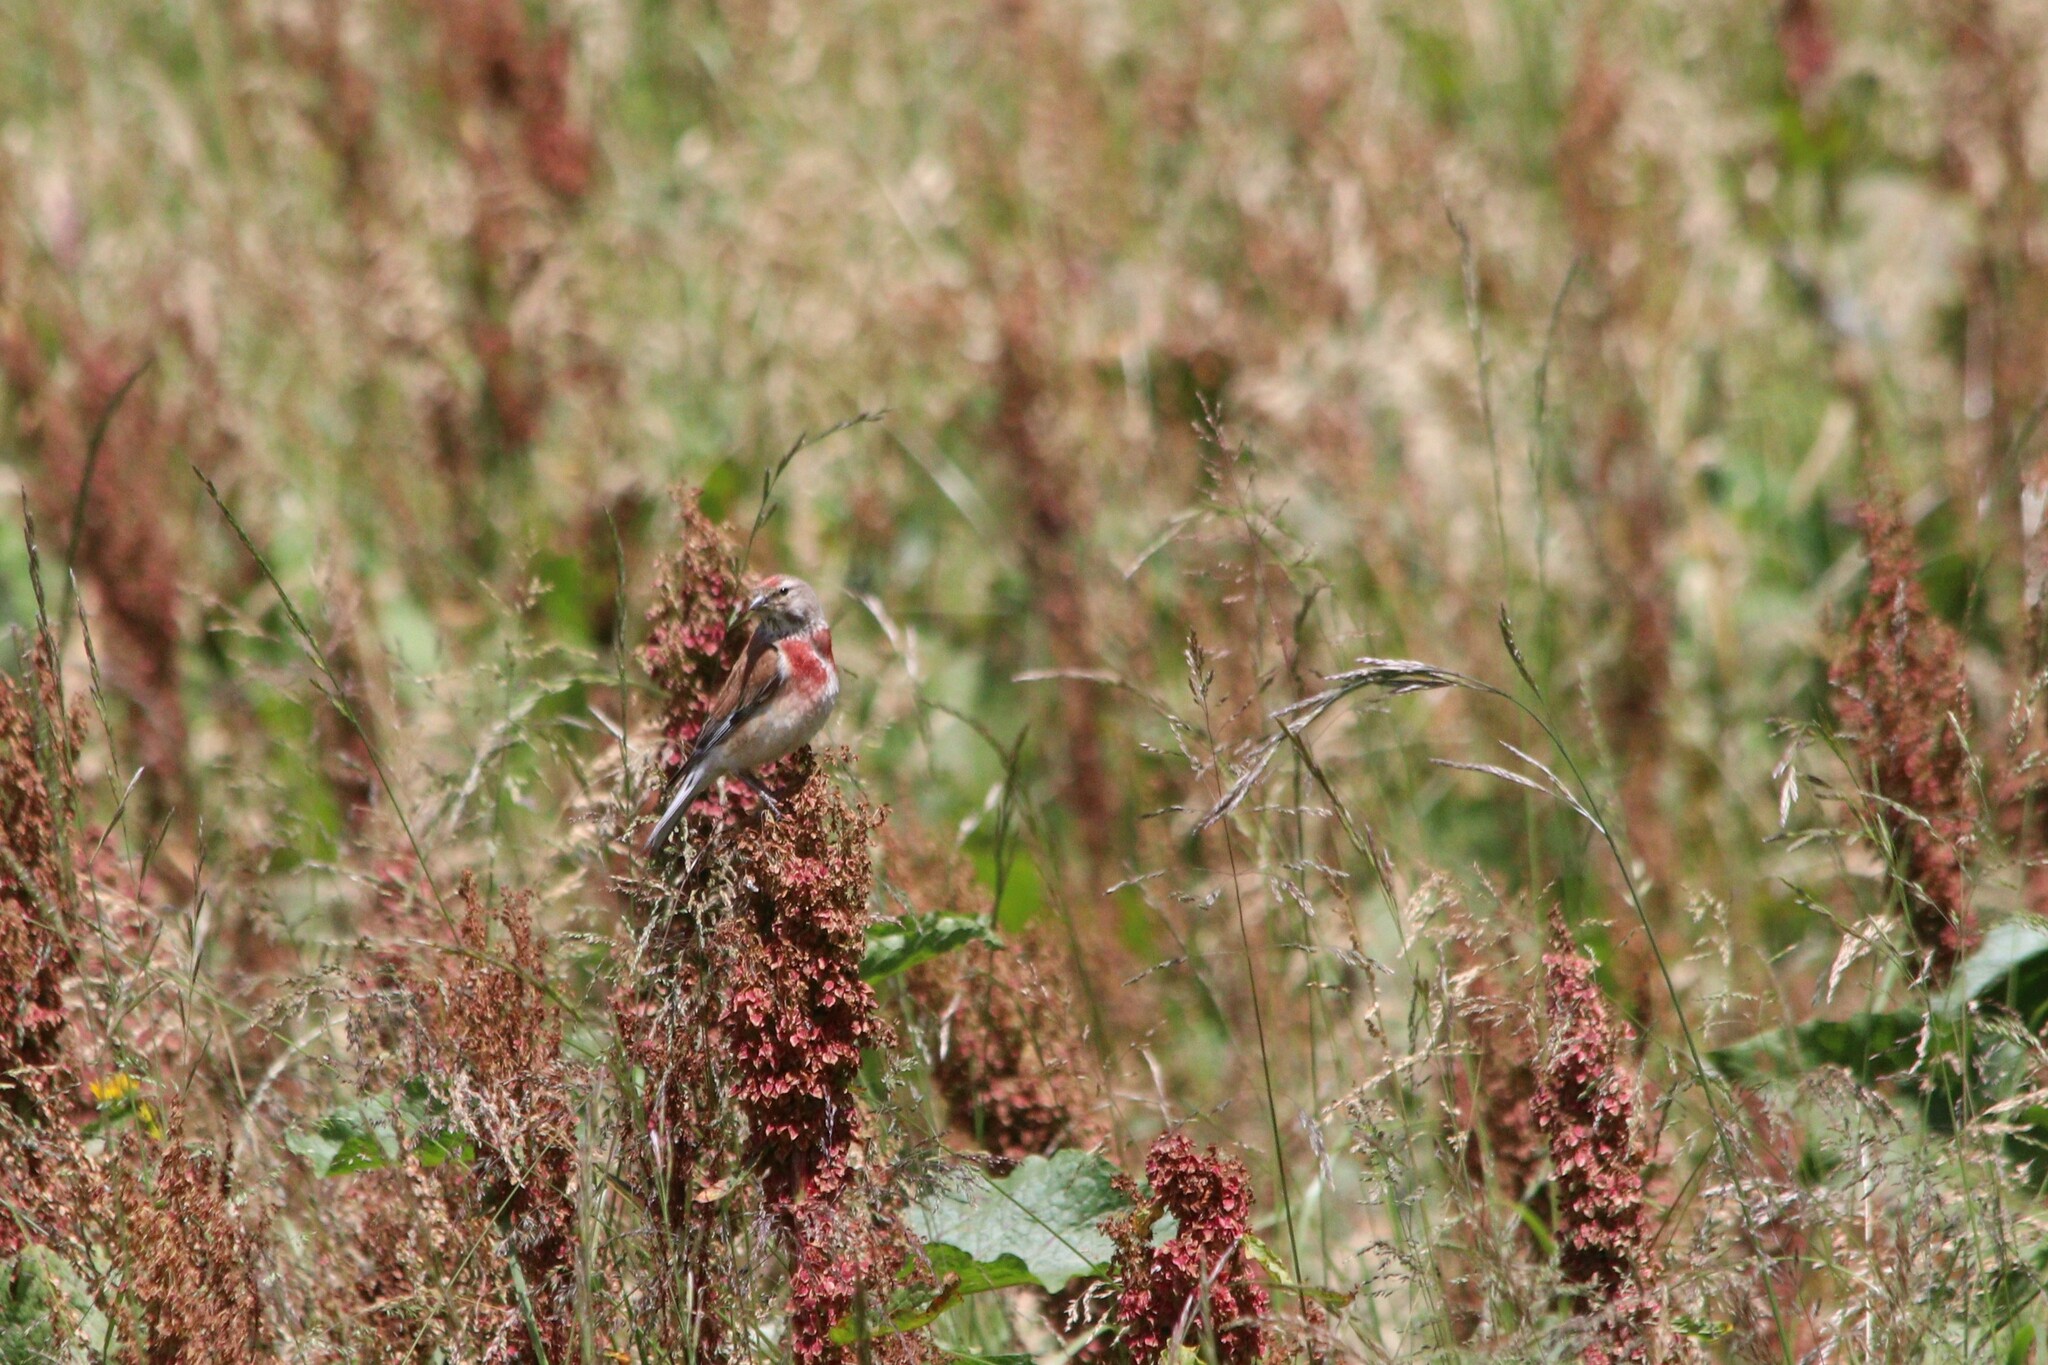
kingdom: Animalia
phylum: Chordata
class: Aves
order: Passeriformes
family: Fringillidae
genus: Linaria
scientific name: Linaria cannabina
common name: Common linnet
